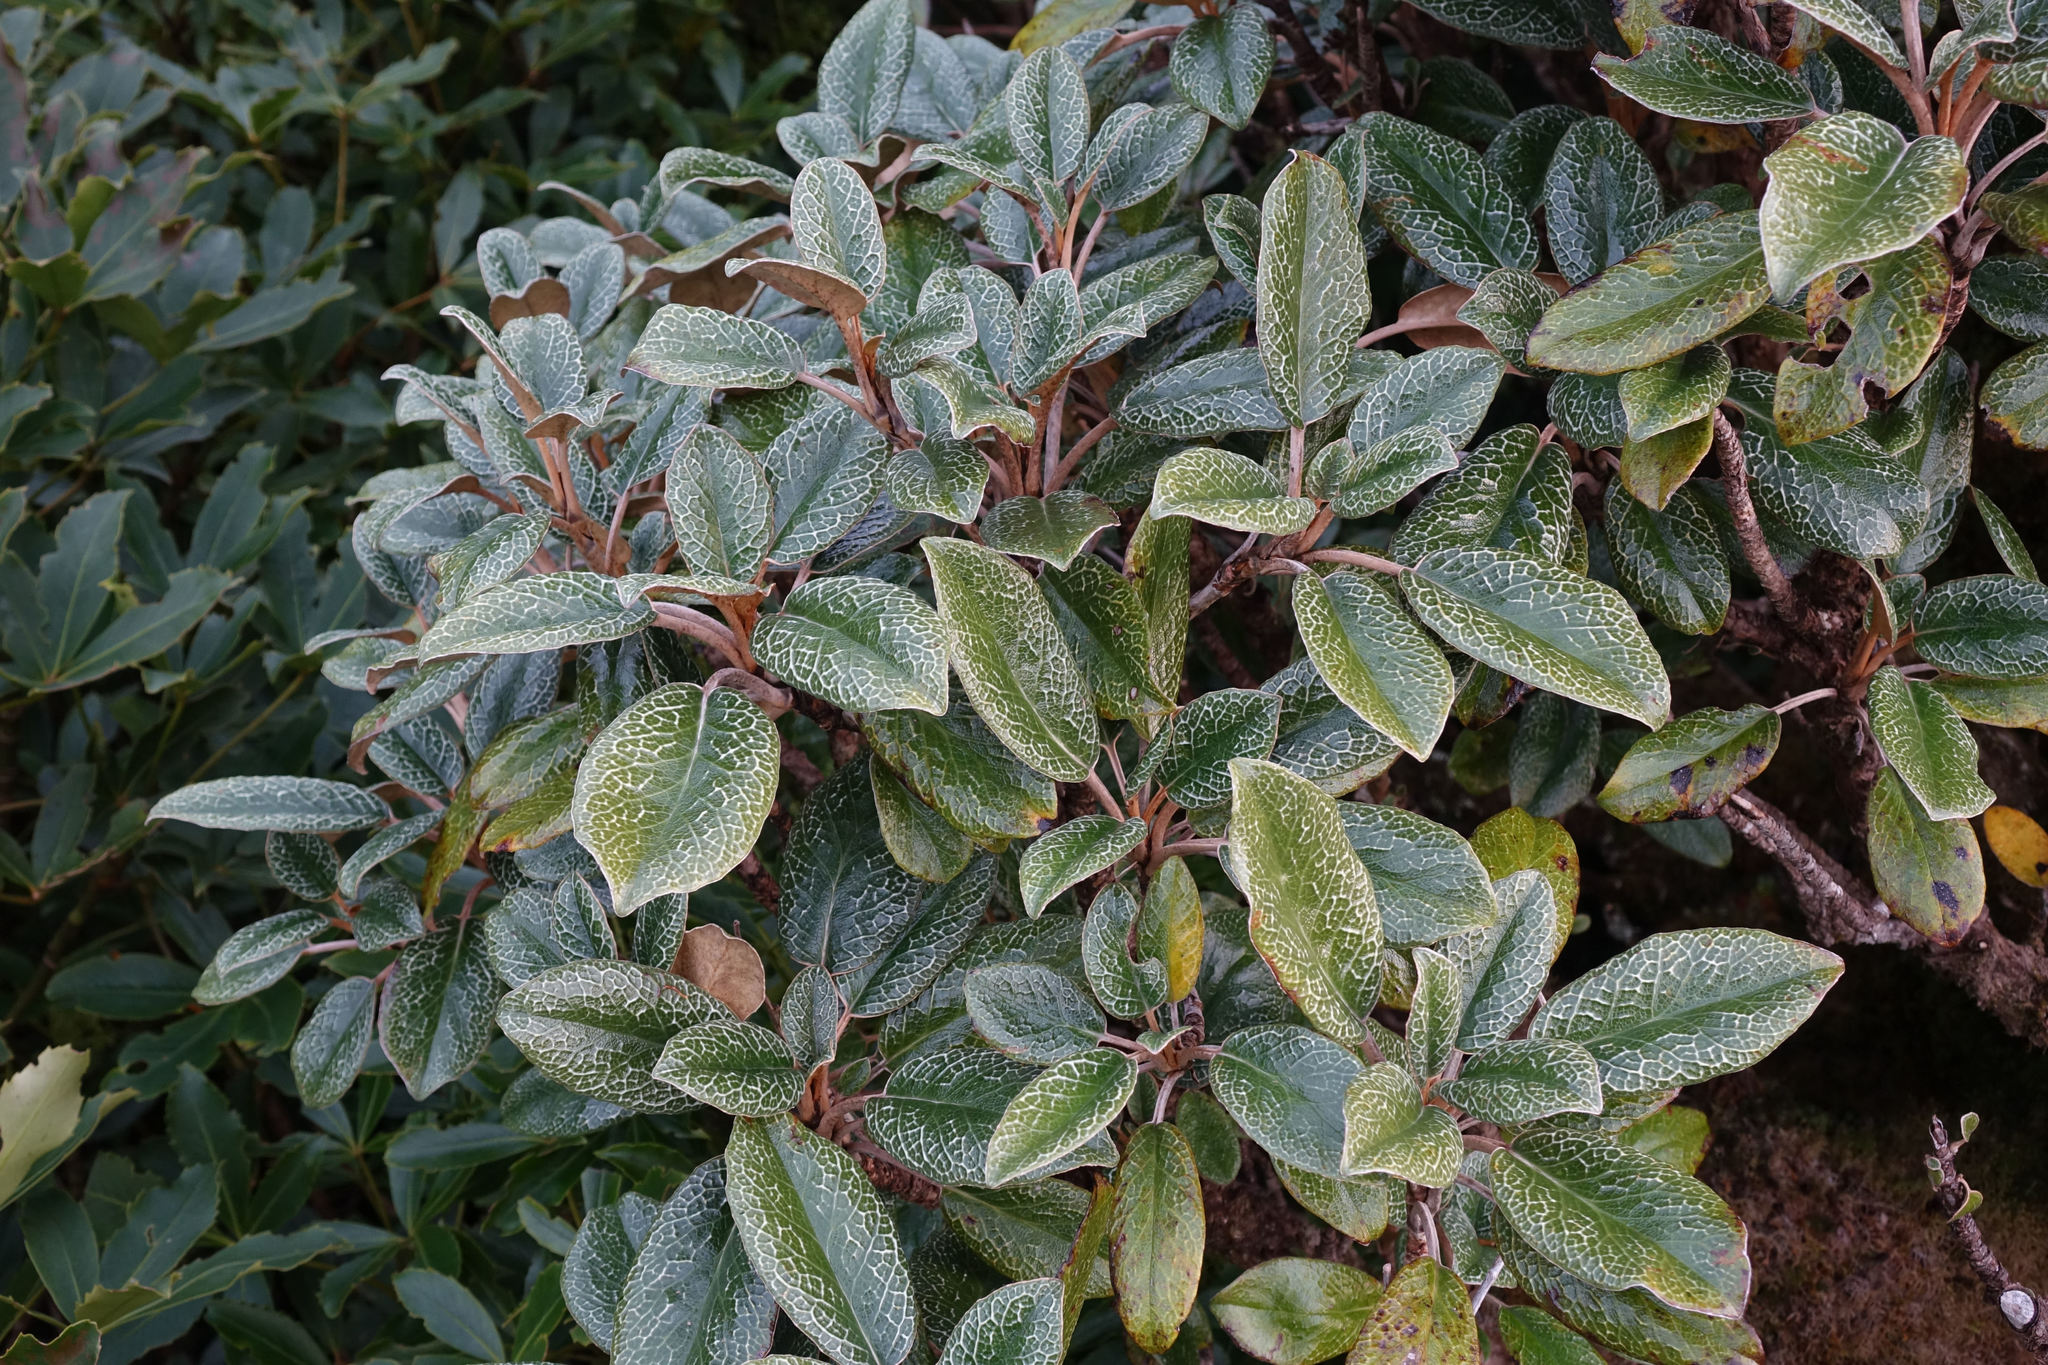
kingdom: Plantae
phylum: Tracheophyta
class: Magnoliopsida
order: Asterales
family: Asteraceae
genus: Brachyglottis
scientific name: Brachyglottis elaeagnifolia
